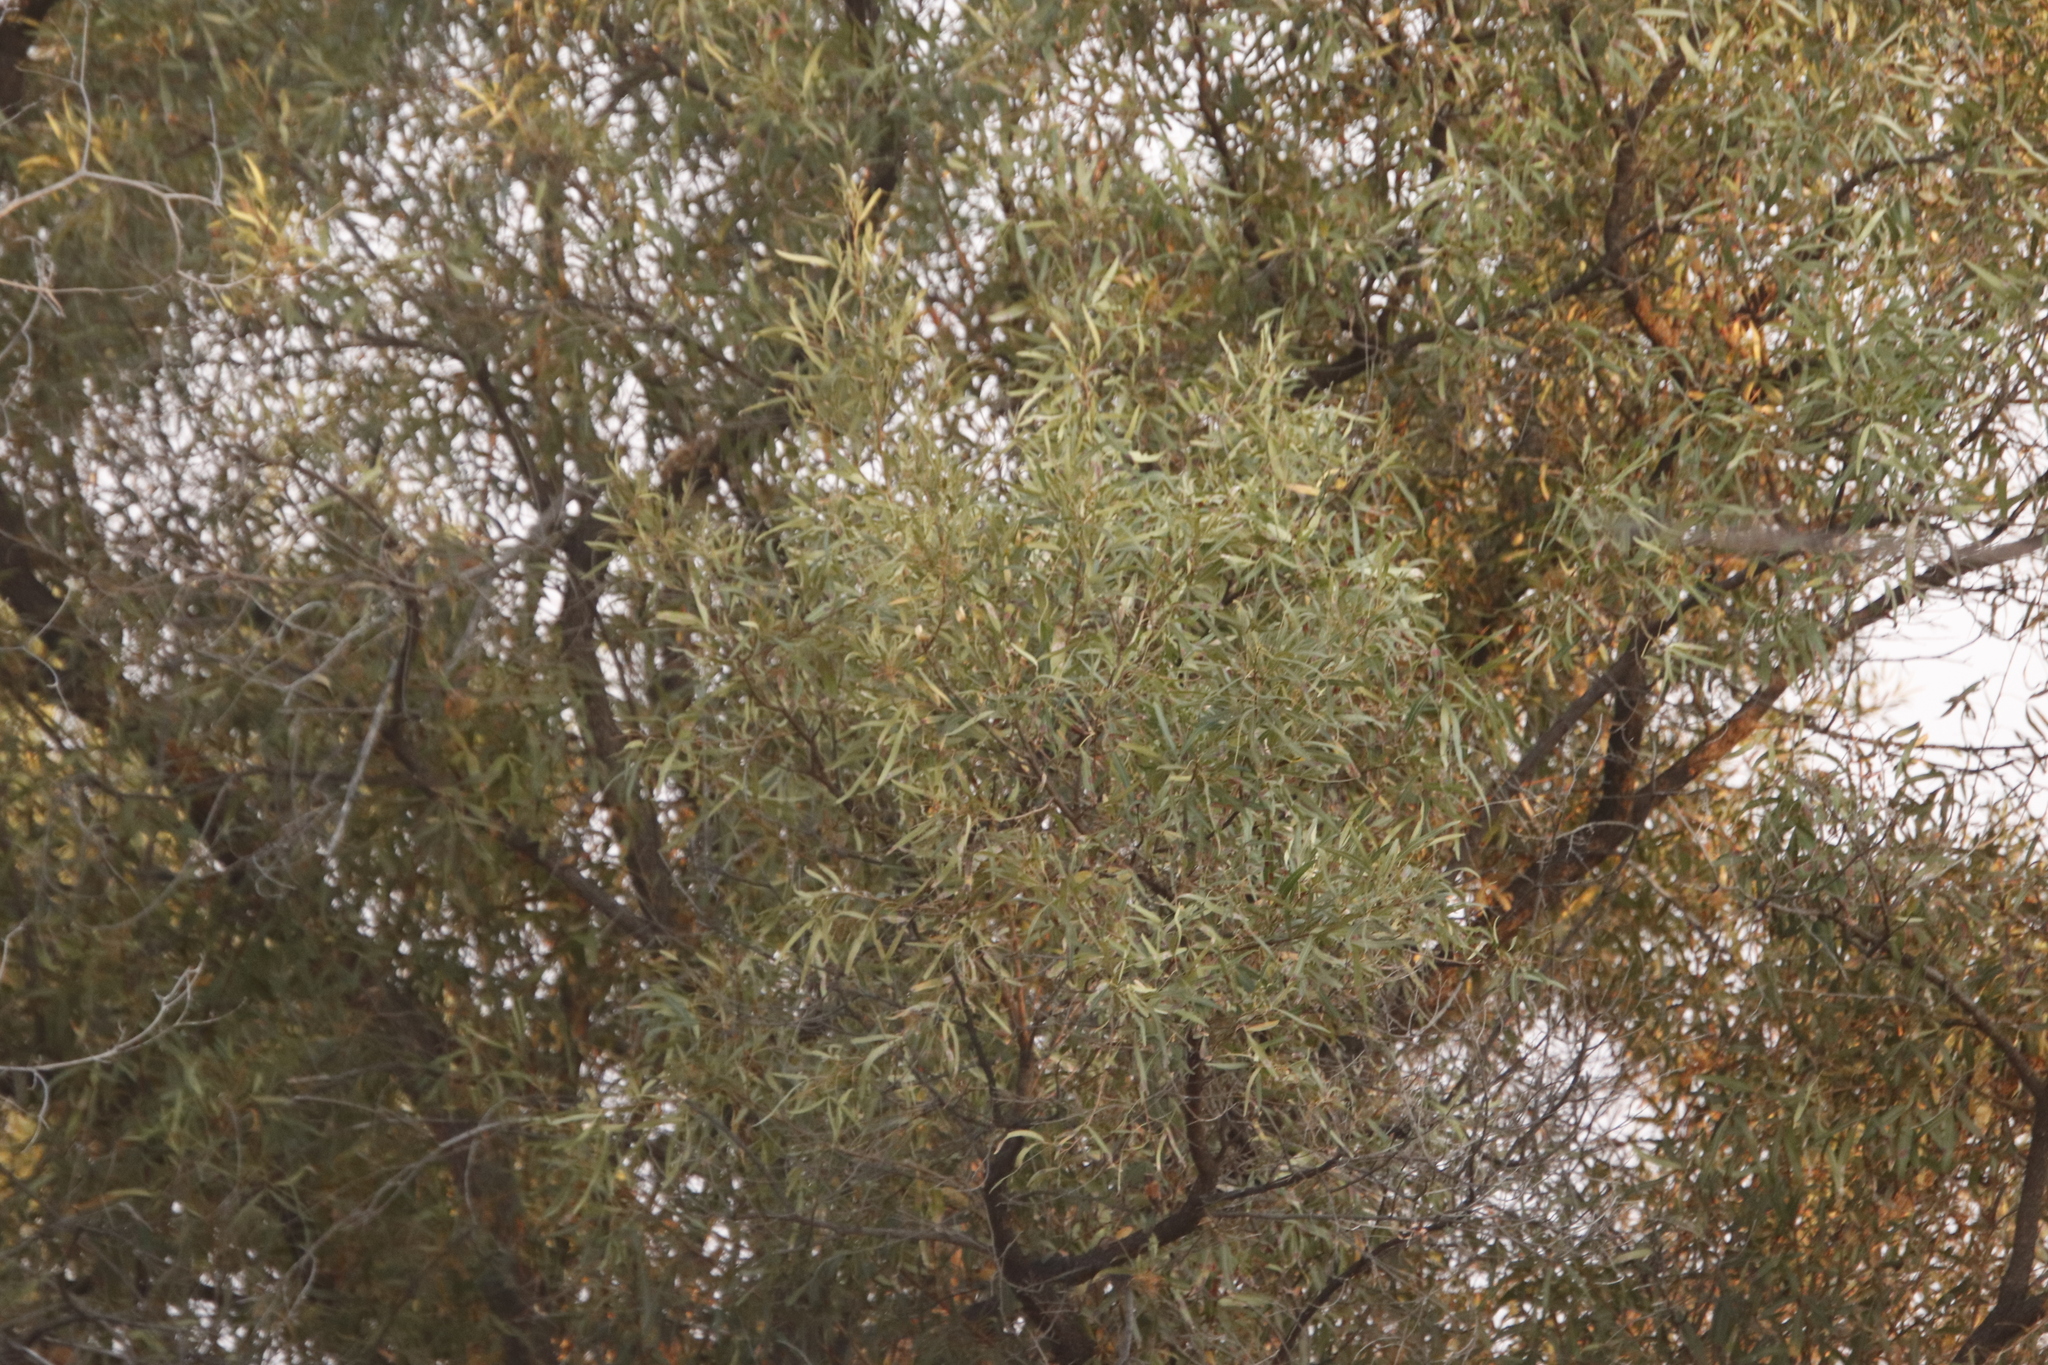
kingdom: Plantae
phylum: Tracheophyta
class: Magnoliopsida
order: Sapindales
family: Anacardiaceae
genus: Searsia
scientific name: Searsia lancea
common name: Cashew
